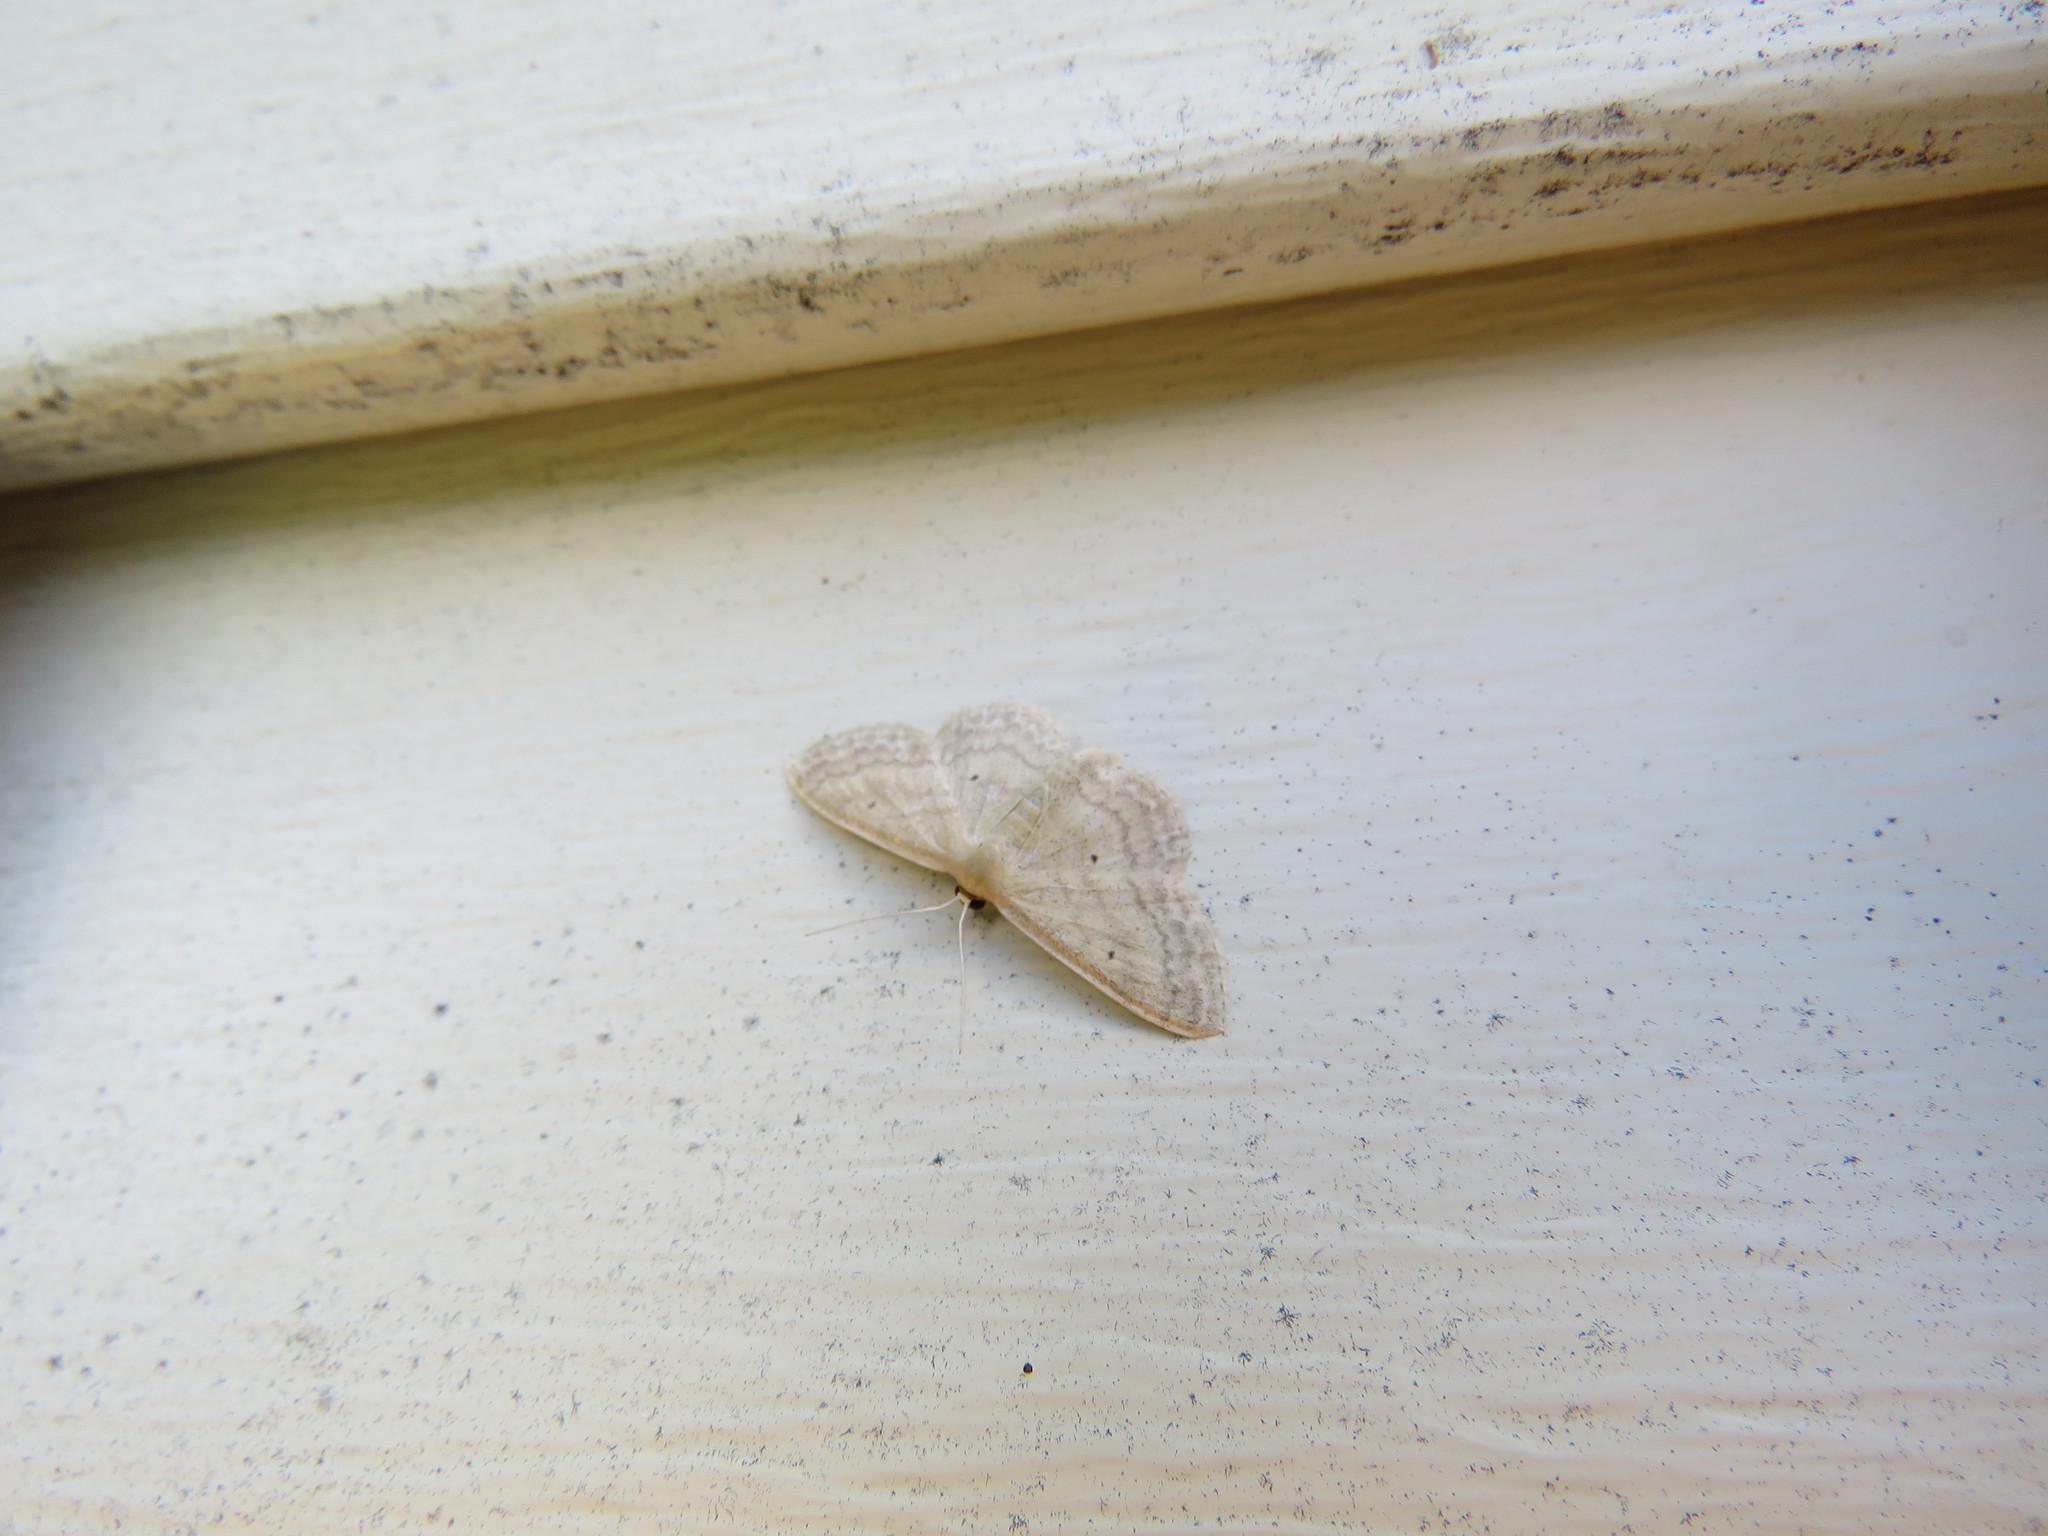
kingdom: Animalia
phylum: Arthropoda
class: Insecta
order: Lepidoptera
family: Geometridae
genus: Scopula
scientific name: Scopula inductata
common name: Soft-lined wave
